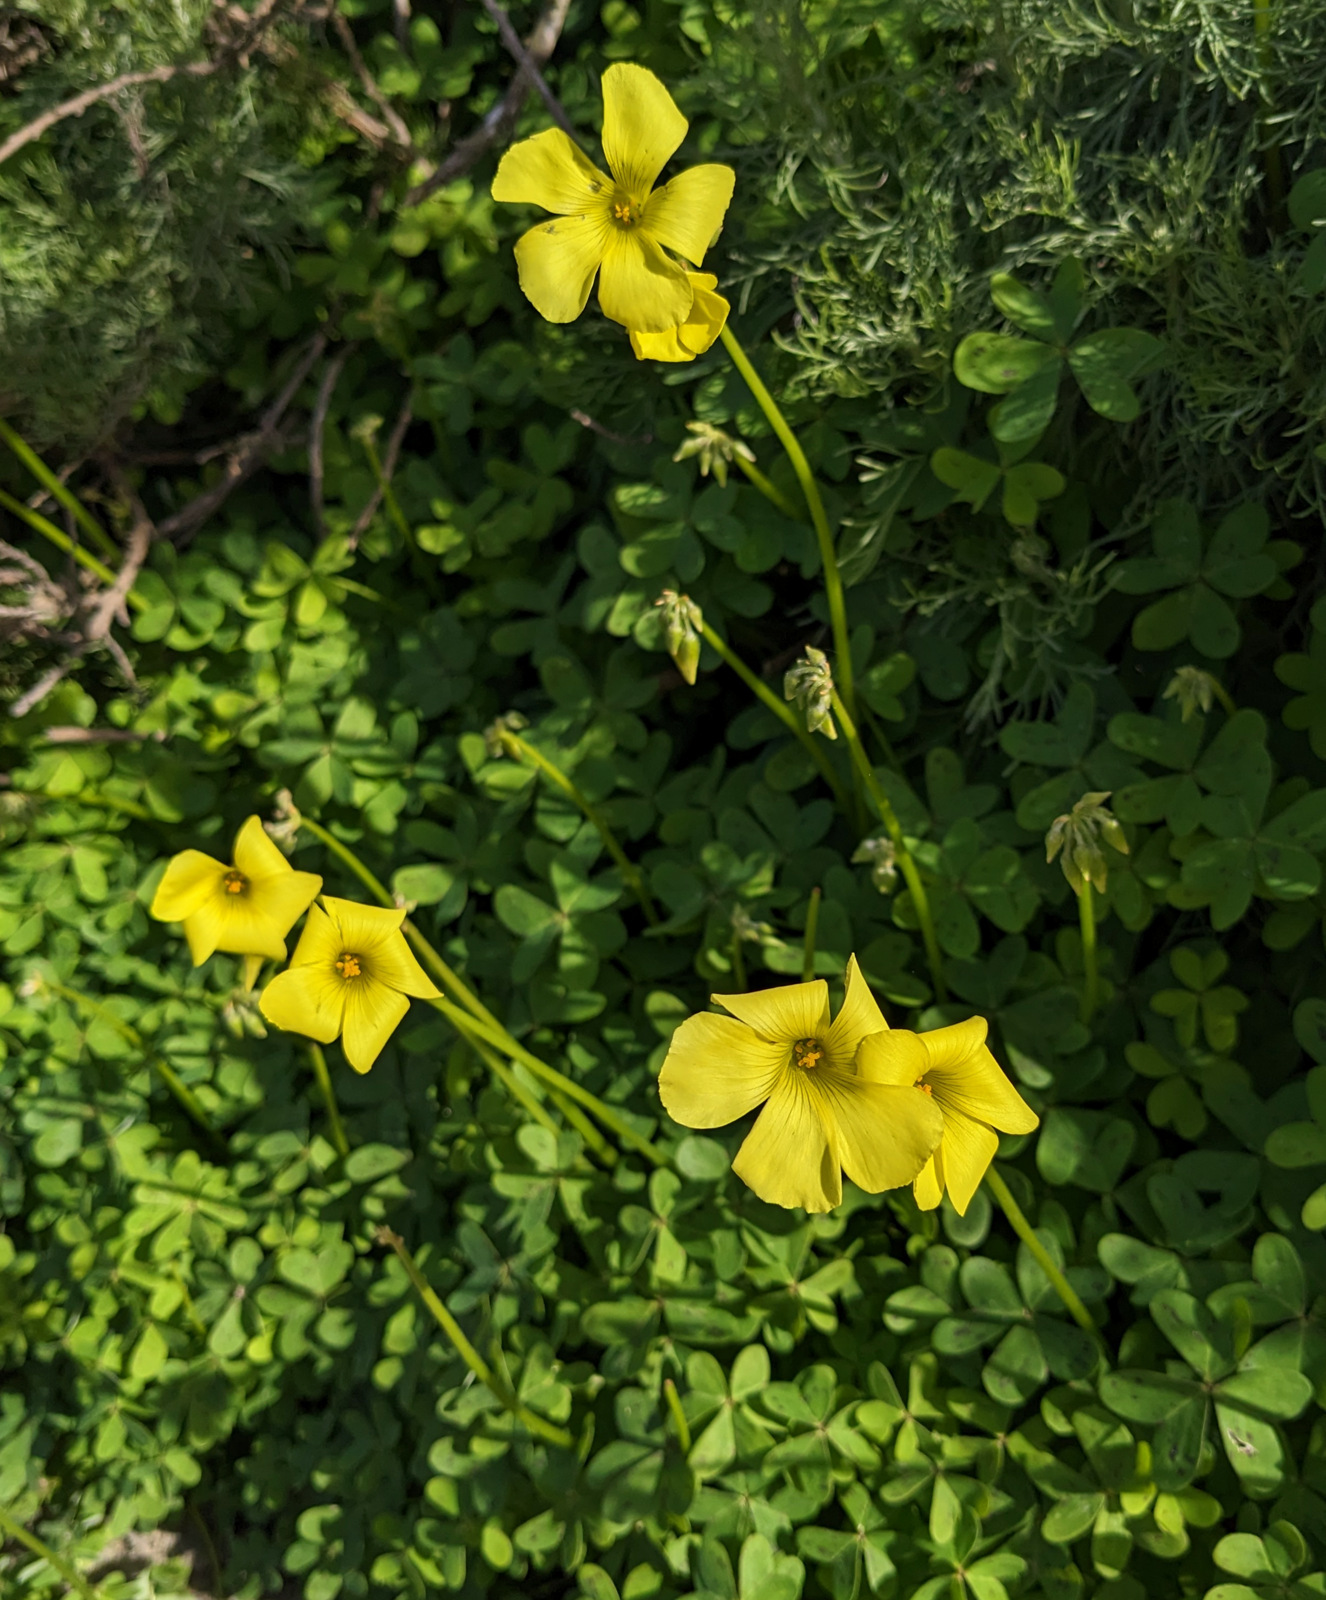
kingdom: Plantae
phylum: Tracheophyta
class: Magnoliopsida
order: Oxalidales
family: Oxalidaceae
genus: Oxalis
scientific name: Oxalis pes-caprae
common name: Bermuda-buttercup
